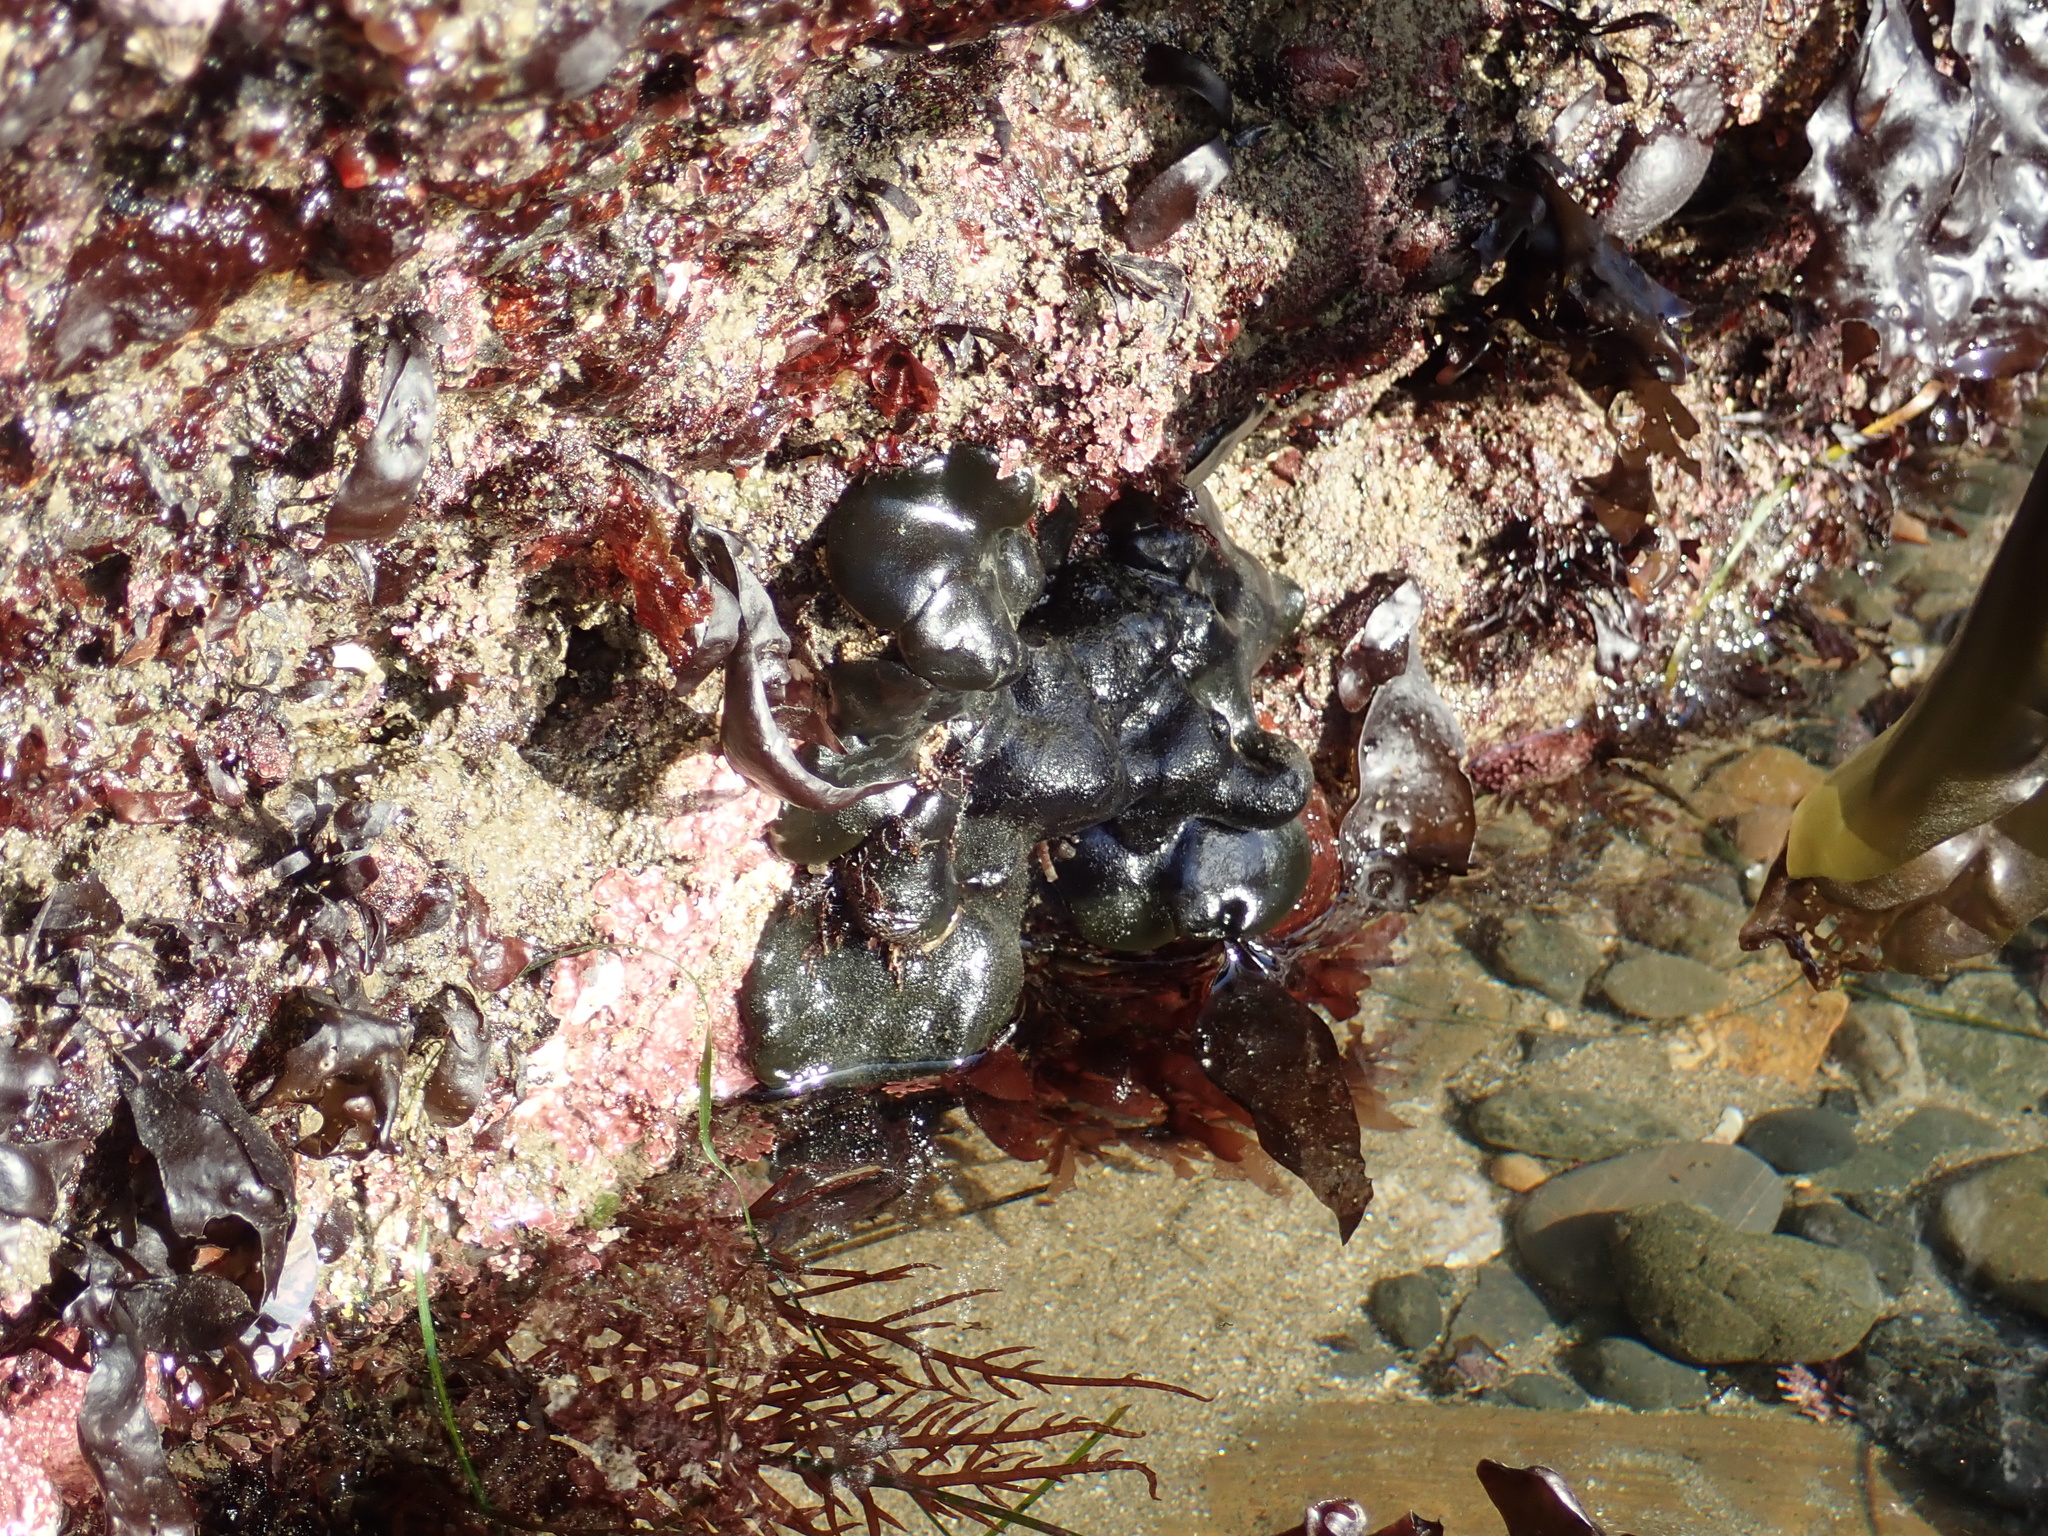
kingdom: Plantae
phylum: Chlorophyta
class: Ulvophyceae
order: Bryopsidales
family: Codiaceae
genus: Codium
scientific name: Codium setchellii
